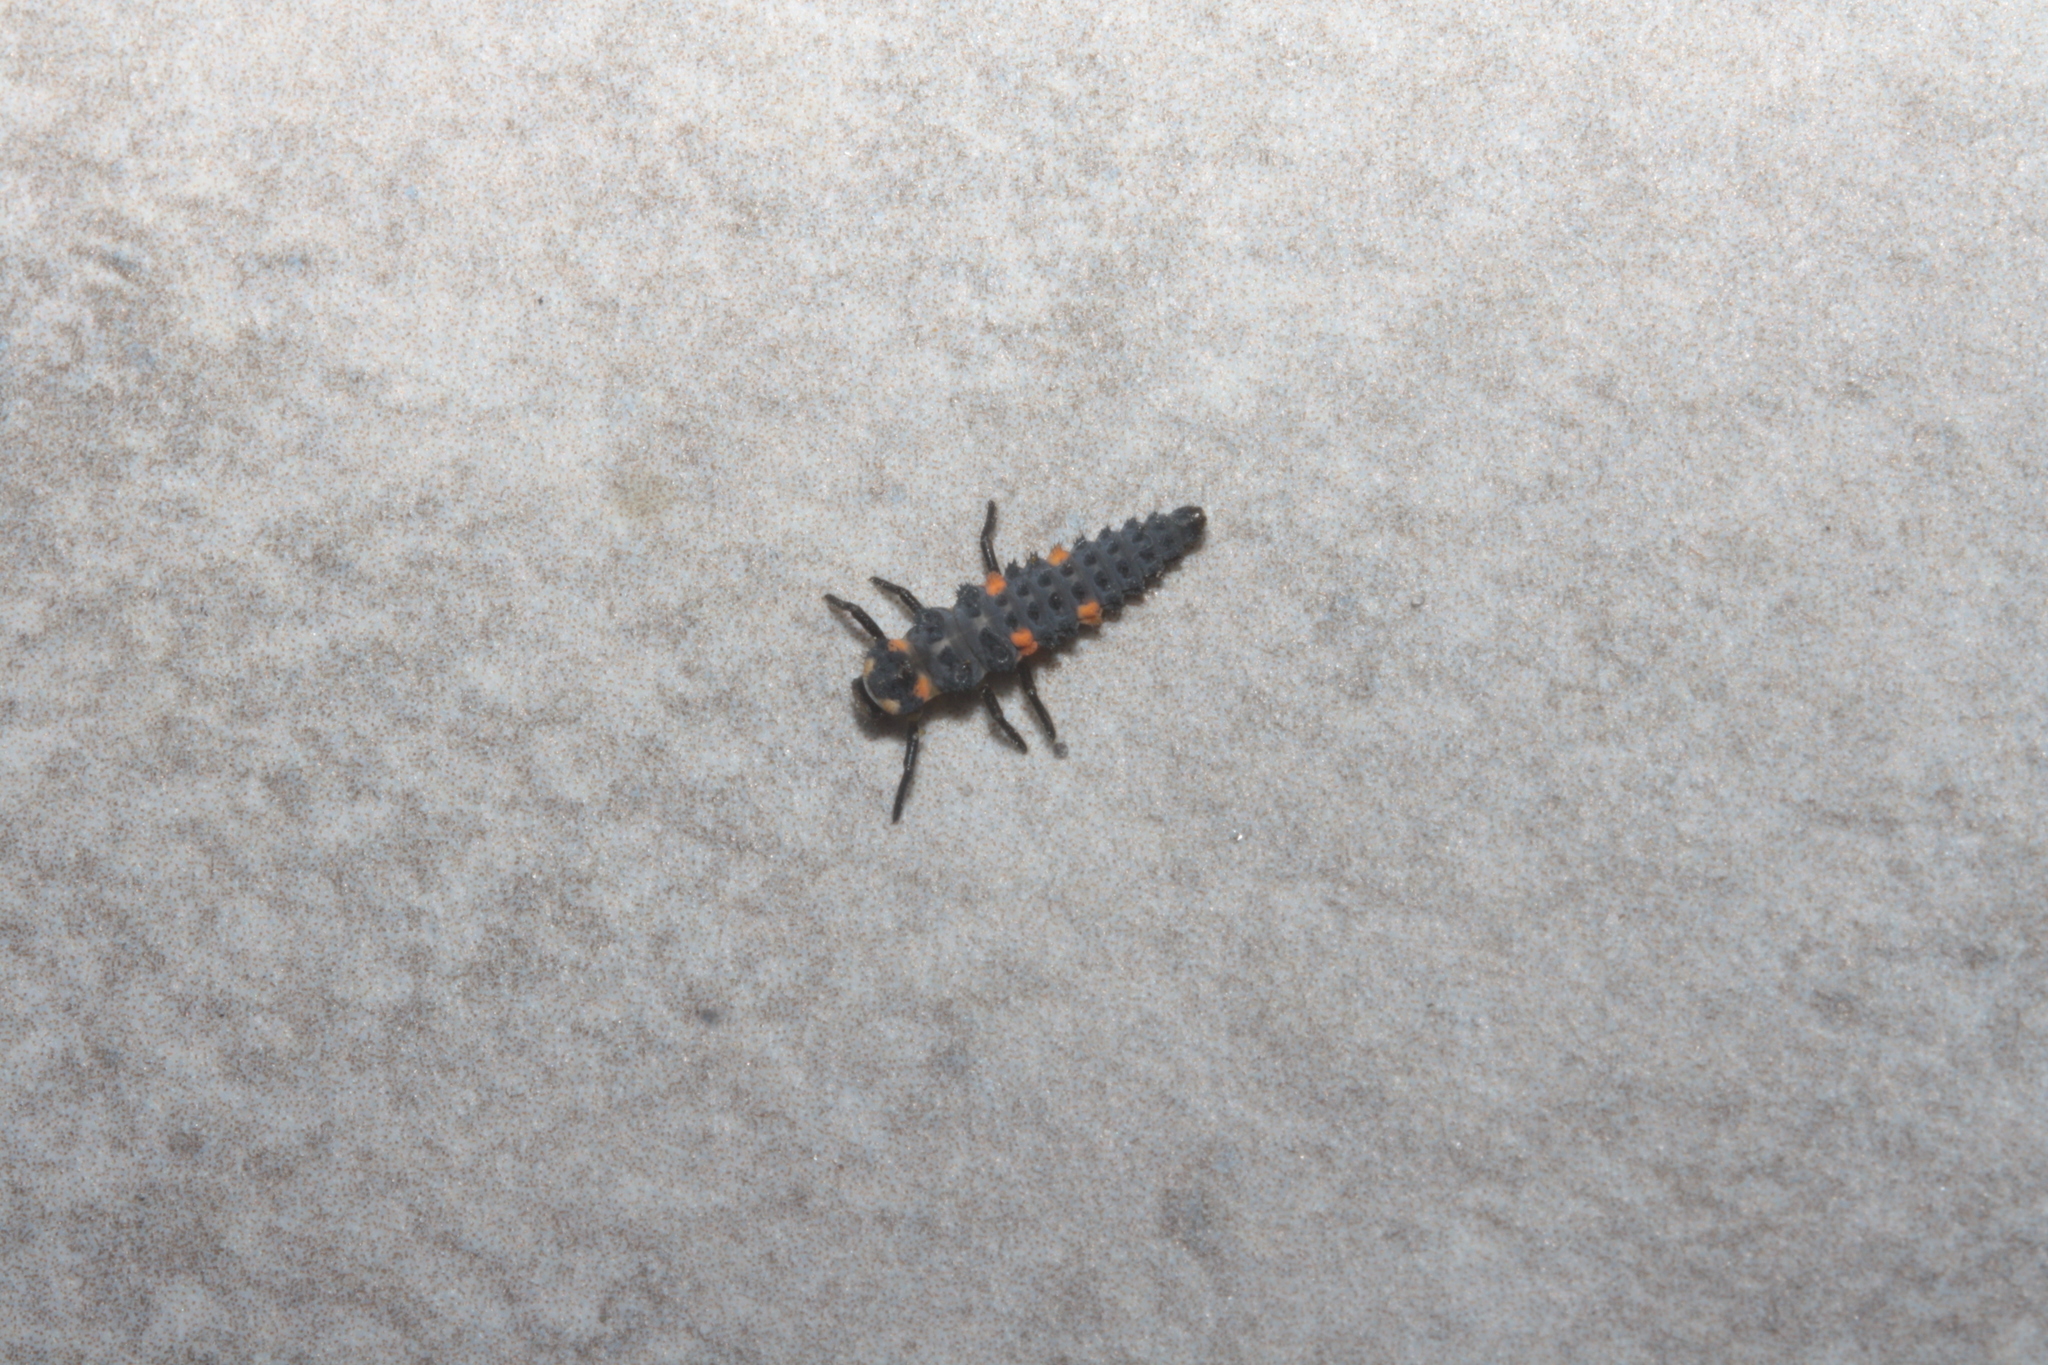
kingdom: Animalia
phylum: Arthropoda
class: Insecta
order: Coleoptera
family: Coccinellidae
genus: Coccinella
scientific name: Coccinella septempunctata
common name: Sevenspotted lady beetle
